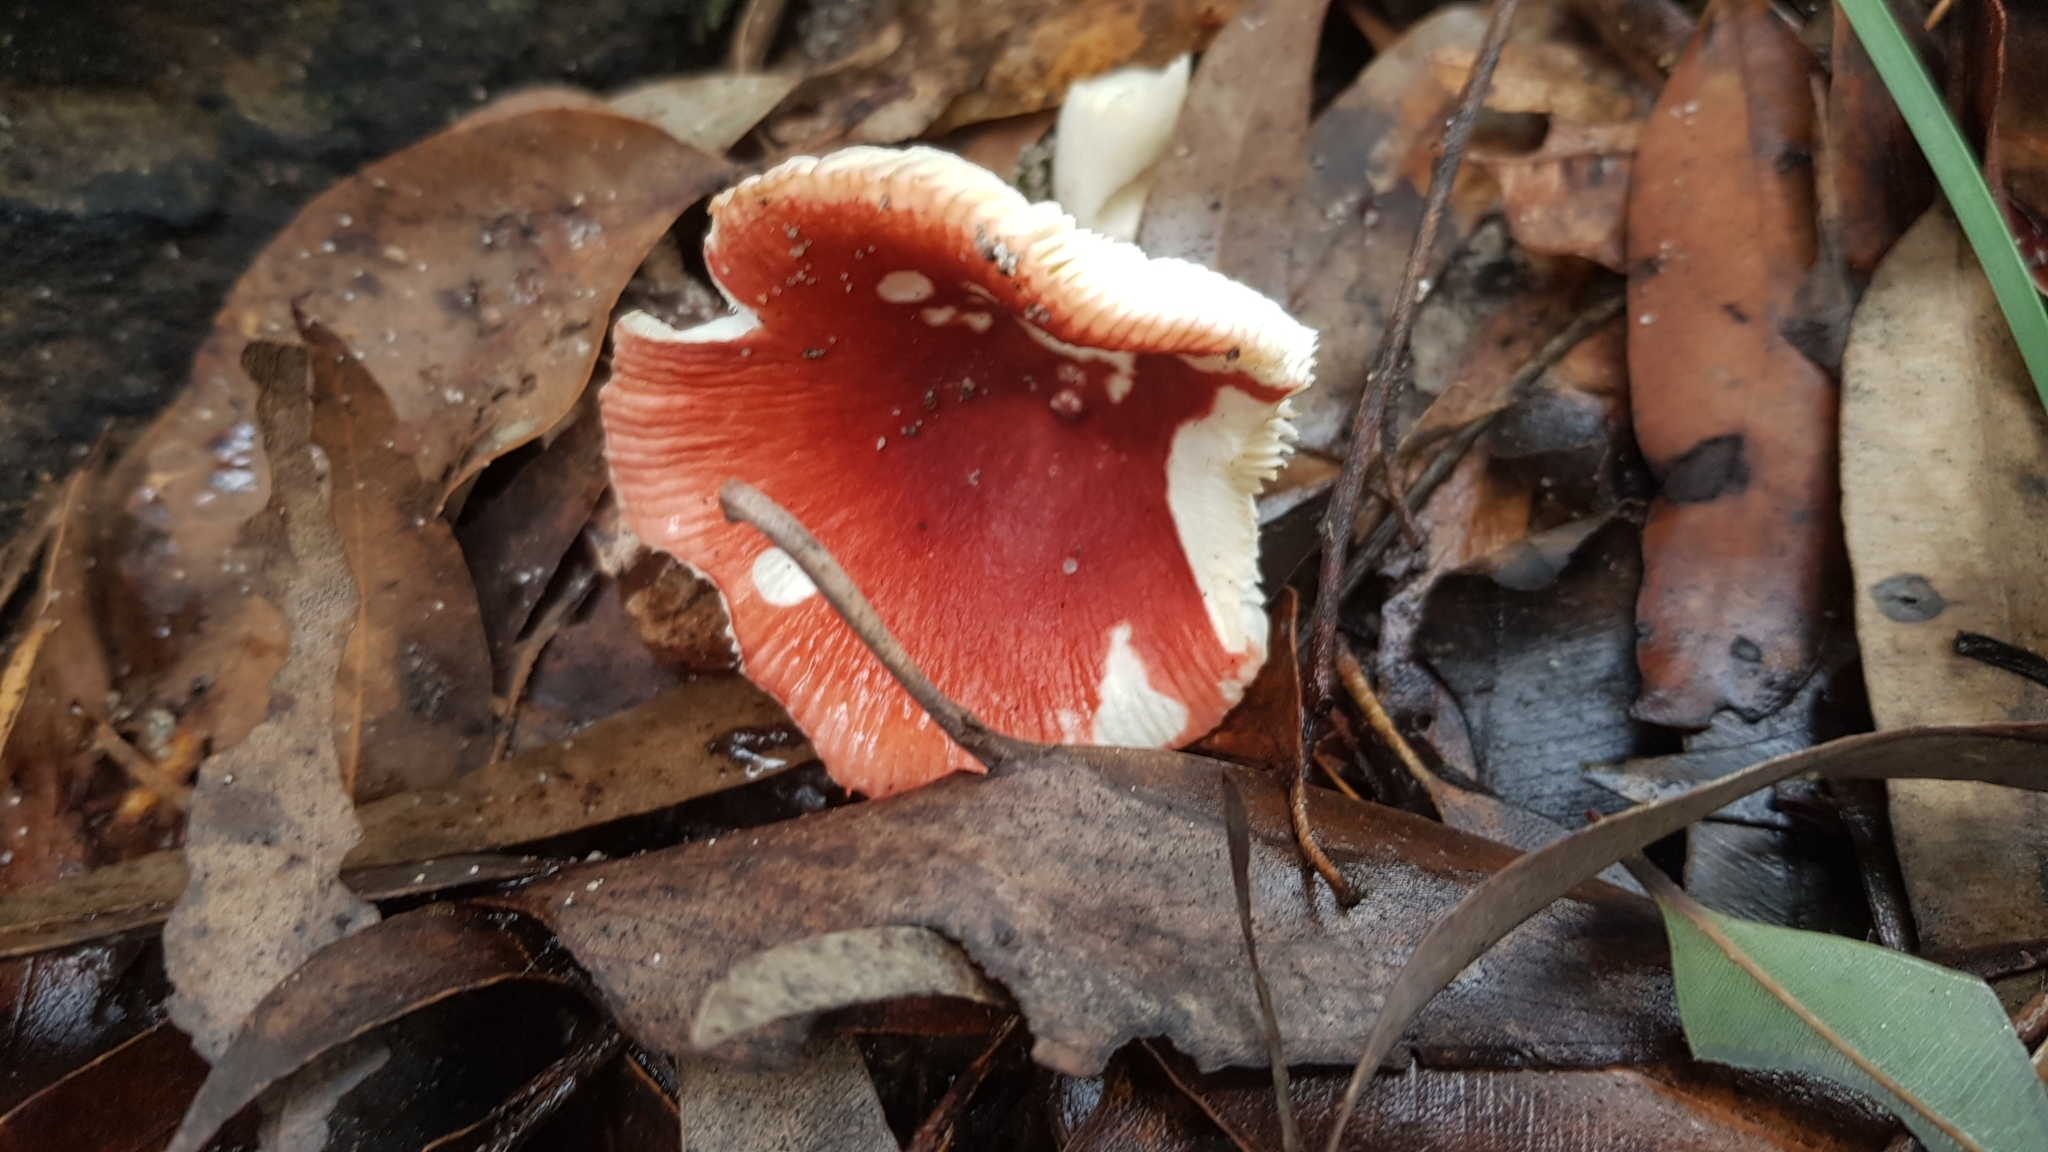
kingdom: Fungi
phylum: Basidiomycota
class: Agaricomycetes
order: Russulales
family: Russulaceae
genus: Russula
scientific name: Russula persanguinea
